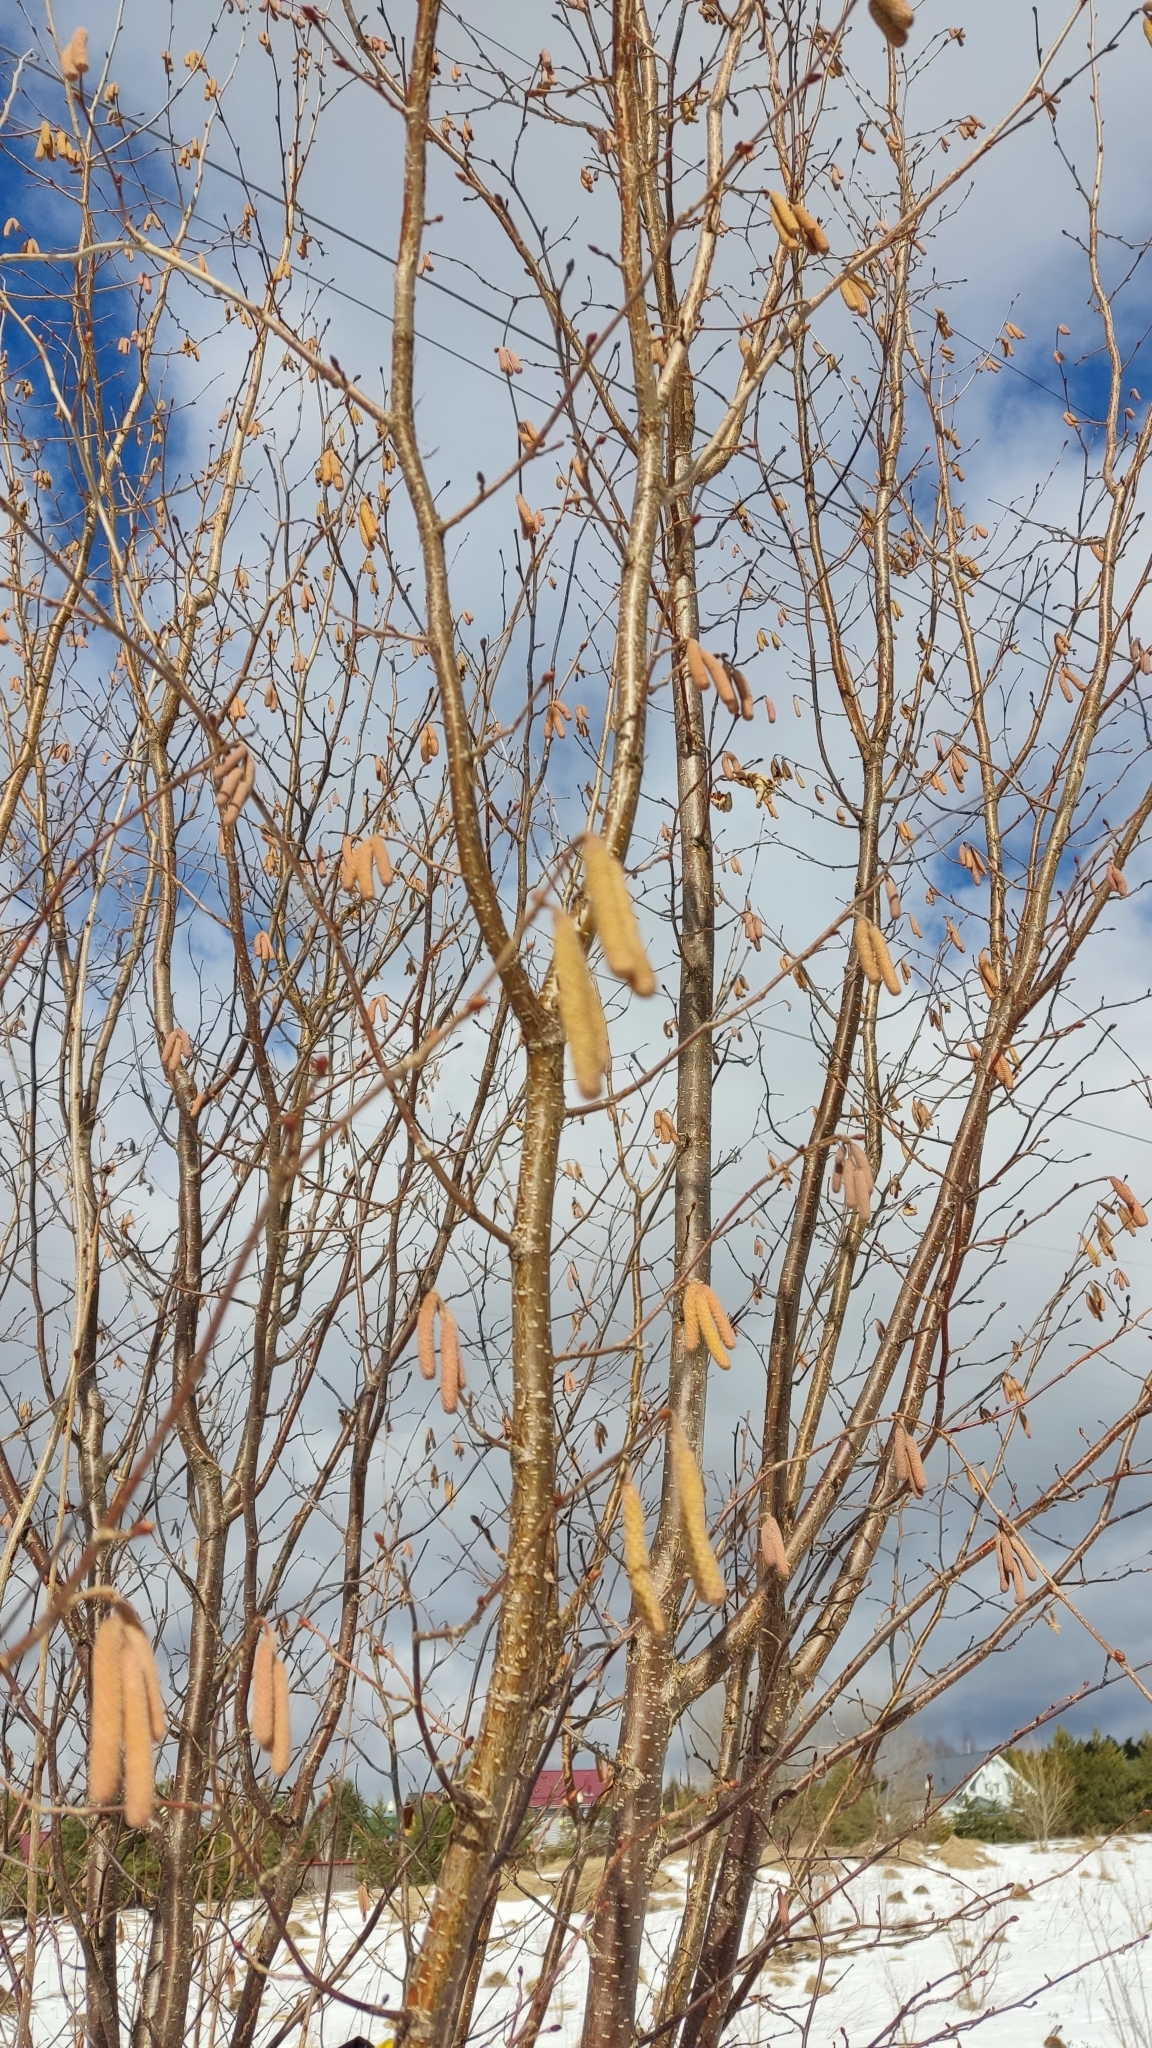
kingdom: Plantae
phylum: Tracheophyta
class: Magnoliopsida
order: Fagales
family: Betulaceae
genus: Corylus
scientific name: Corylus avellana
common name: European hazel
